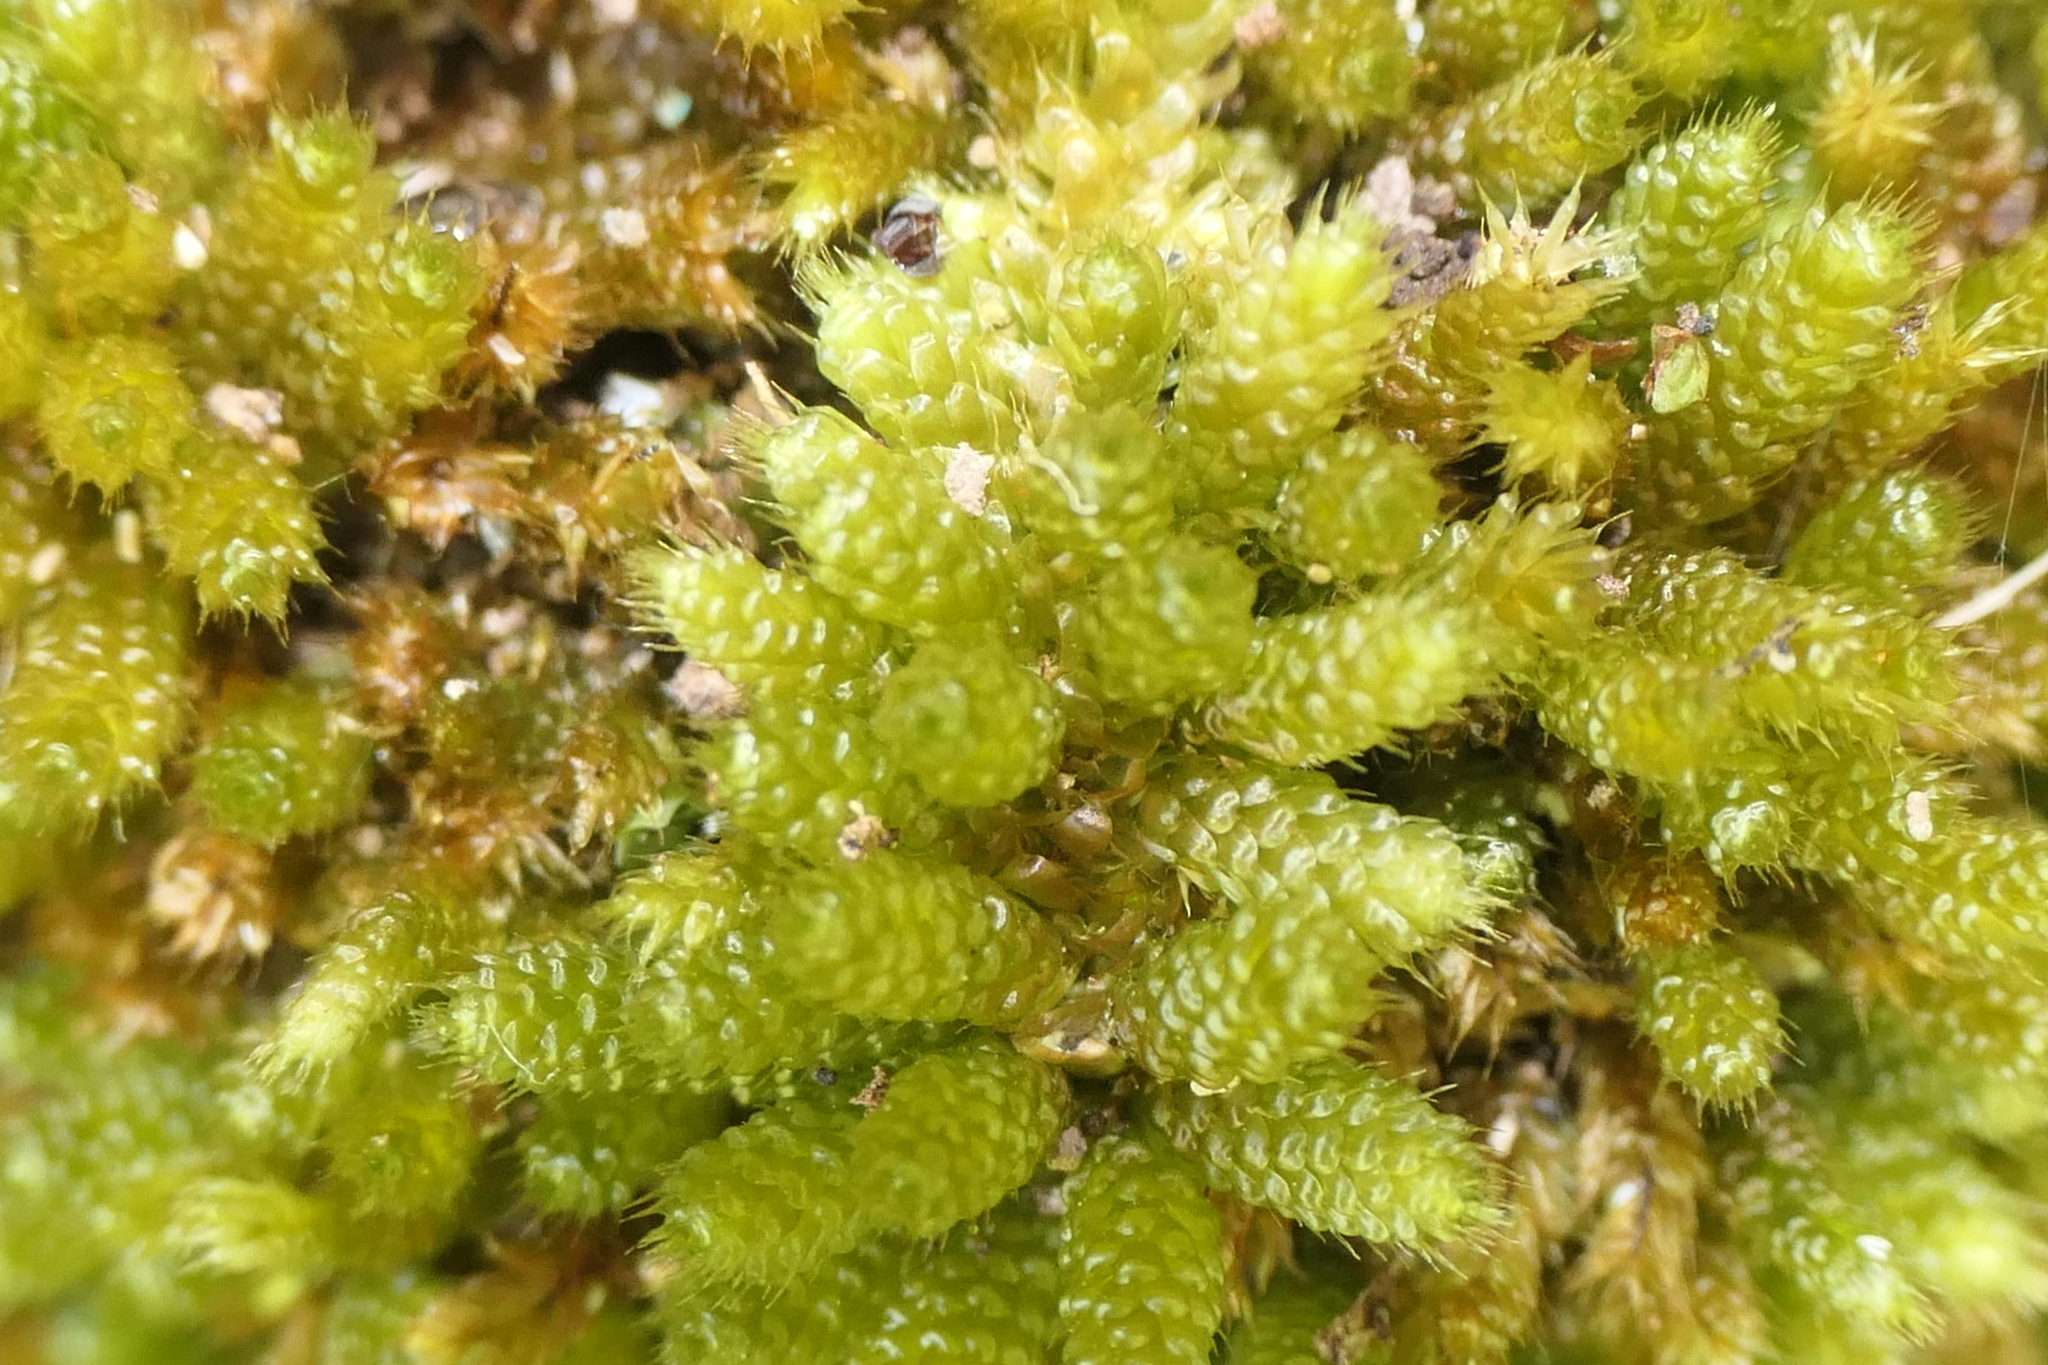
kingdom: Plantae
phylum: Bryophyta
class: Bryopsida
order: Hypnales
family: Myuriaceae
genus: Myurium
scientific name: Myurium hochstetteri
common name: Hare-tail moss
